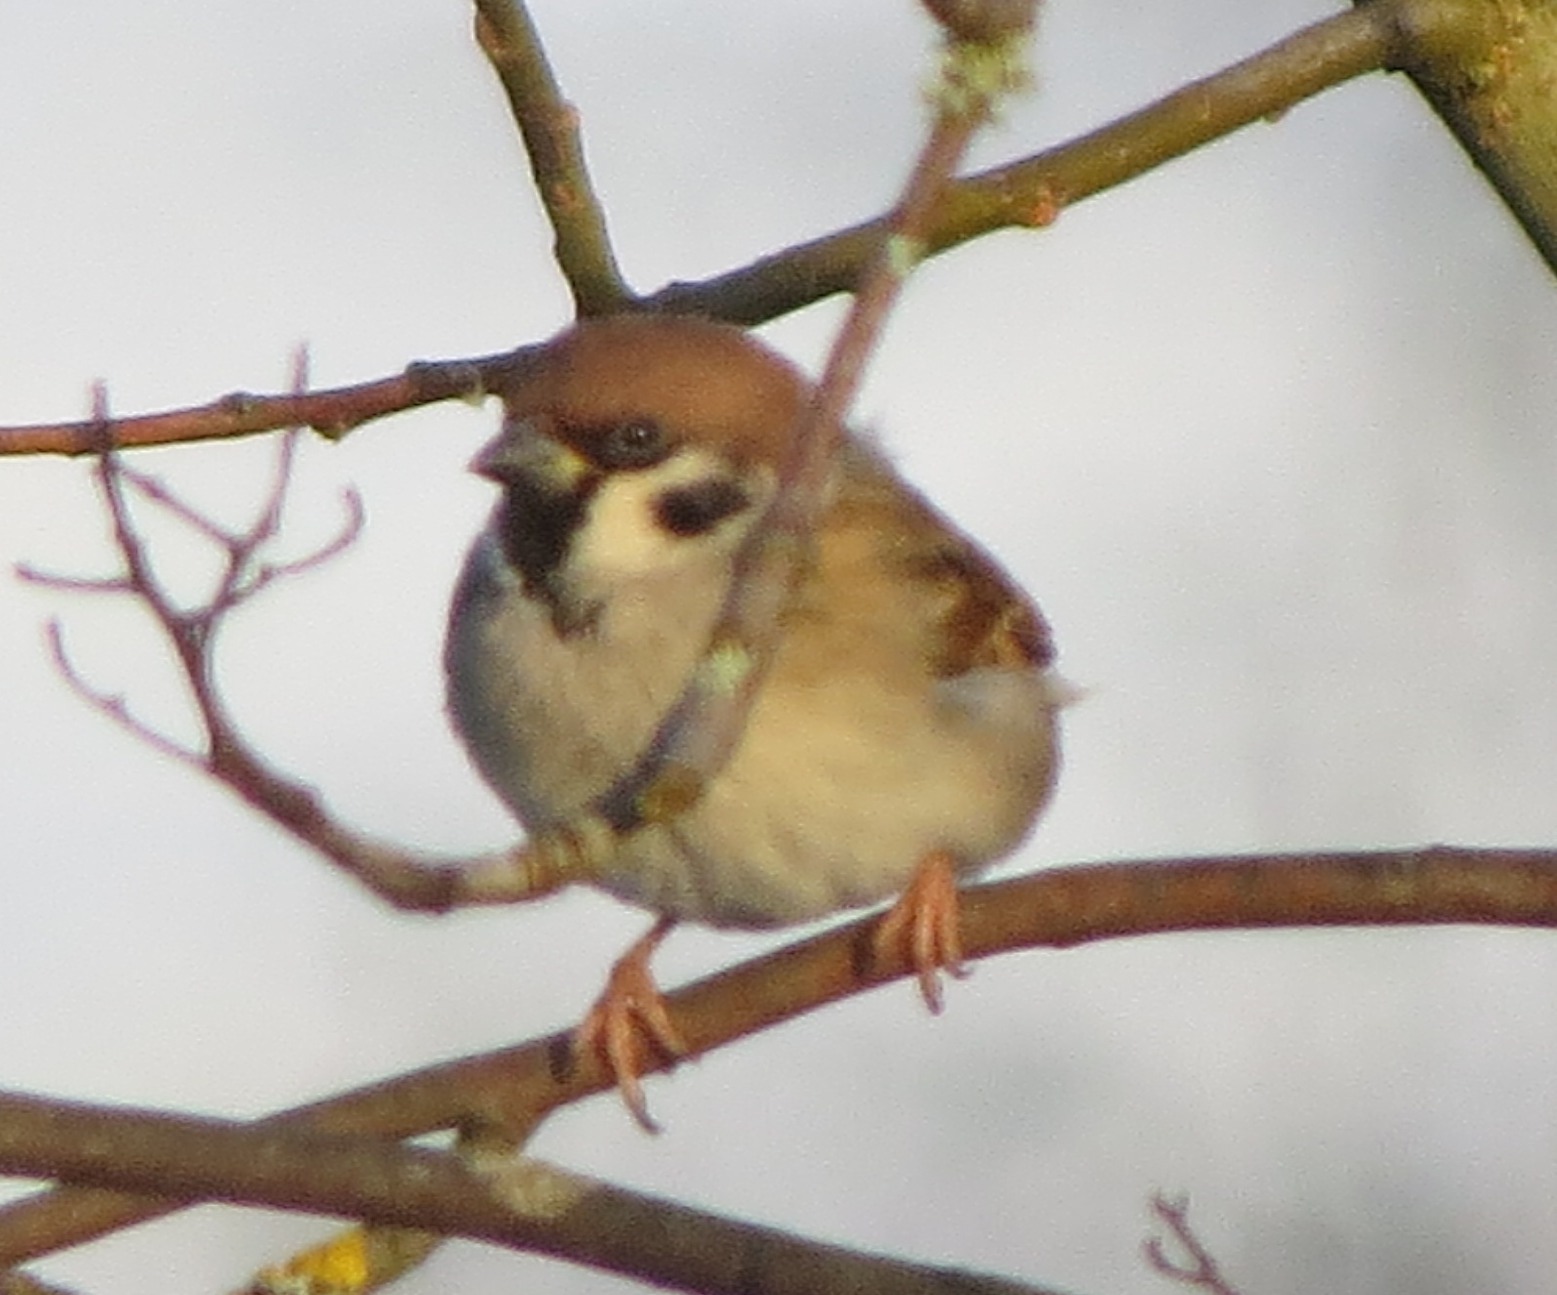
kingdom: Animalia
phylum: Chordata
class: Aves
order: Passeriformes
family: Passeridae
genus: Passer
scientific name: Passer montanus
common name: Eurasian tree sparrow
